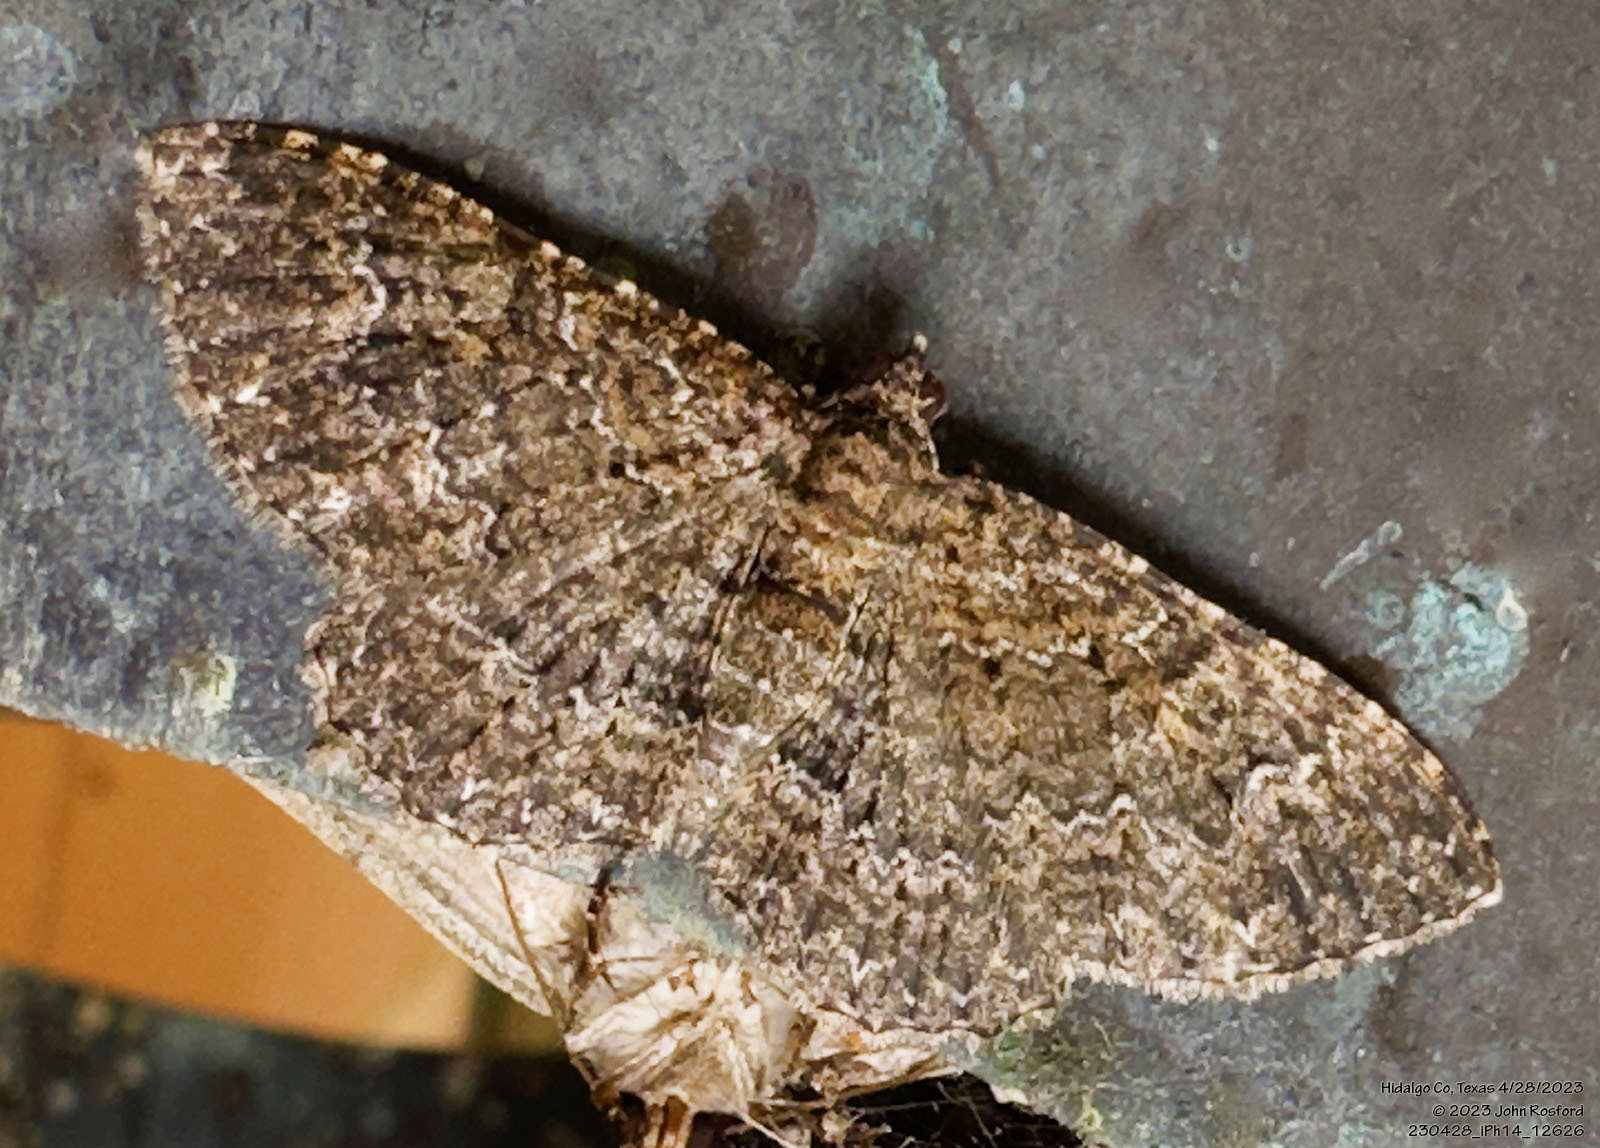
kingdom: Animalia
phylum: Arthropoda
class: Insecta
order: Lepidoptera
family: Geometridae
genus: Disclisioprocta
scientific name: Disclisioprocta stellata
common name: Somber carpet
